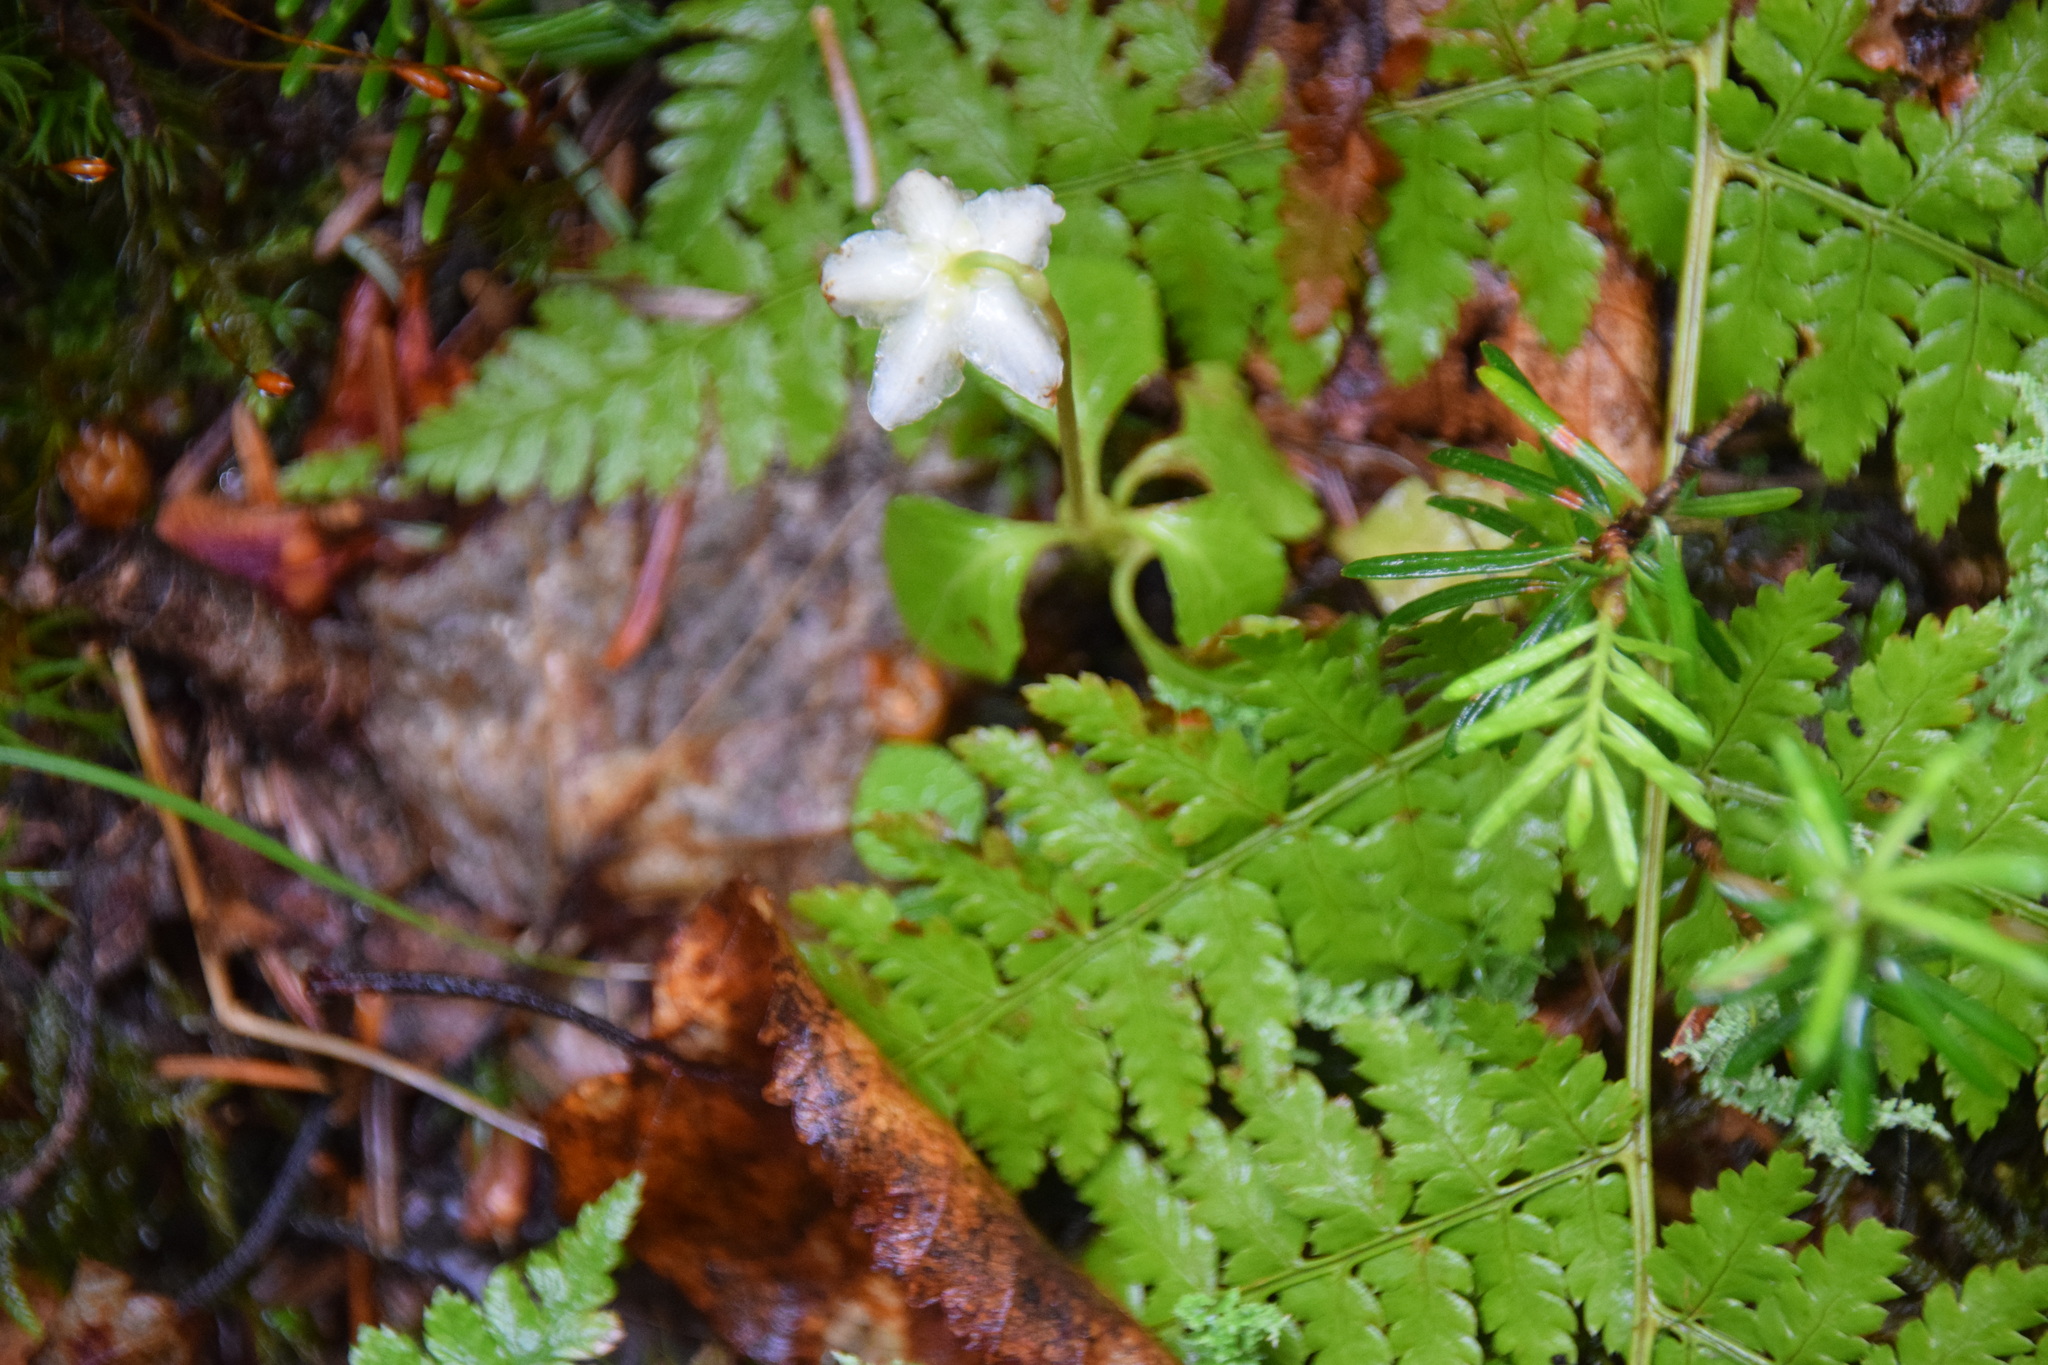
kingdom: Plantae
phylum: Tracheophyta
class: Magnoliopsida
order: Ericales
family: Ericaceae
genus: Moneses
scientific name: Moneses uniflora
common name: One-flowered wintergreen
